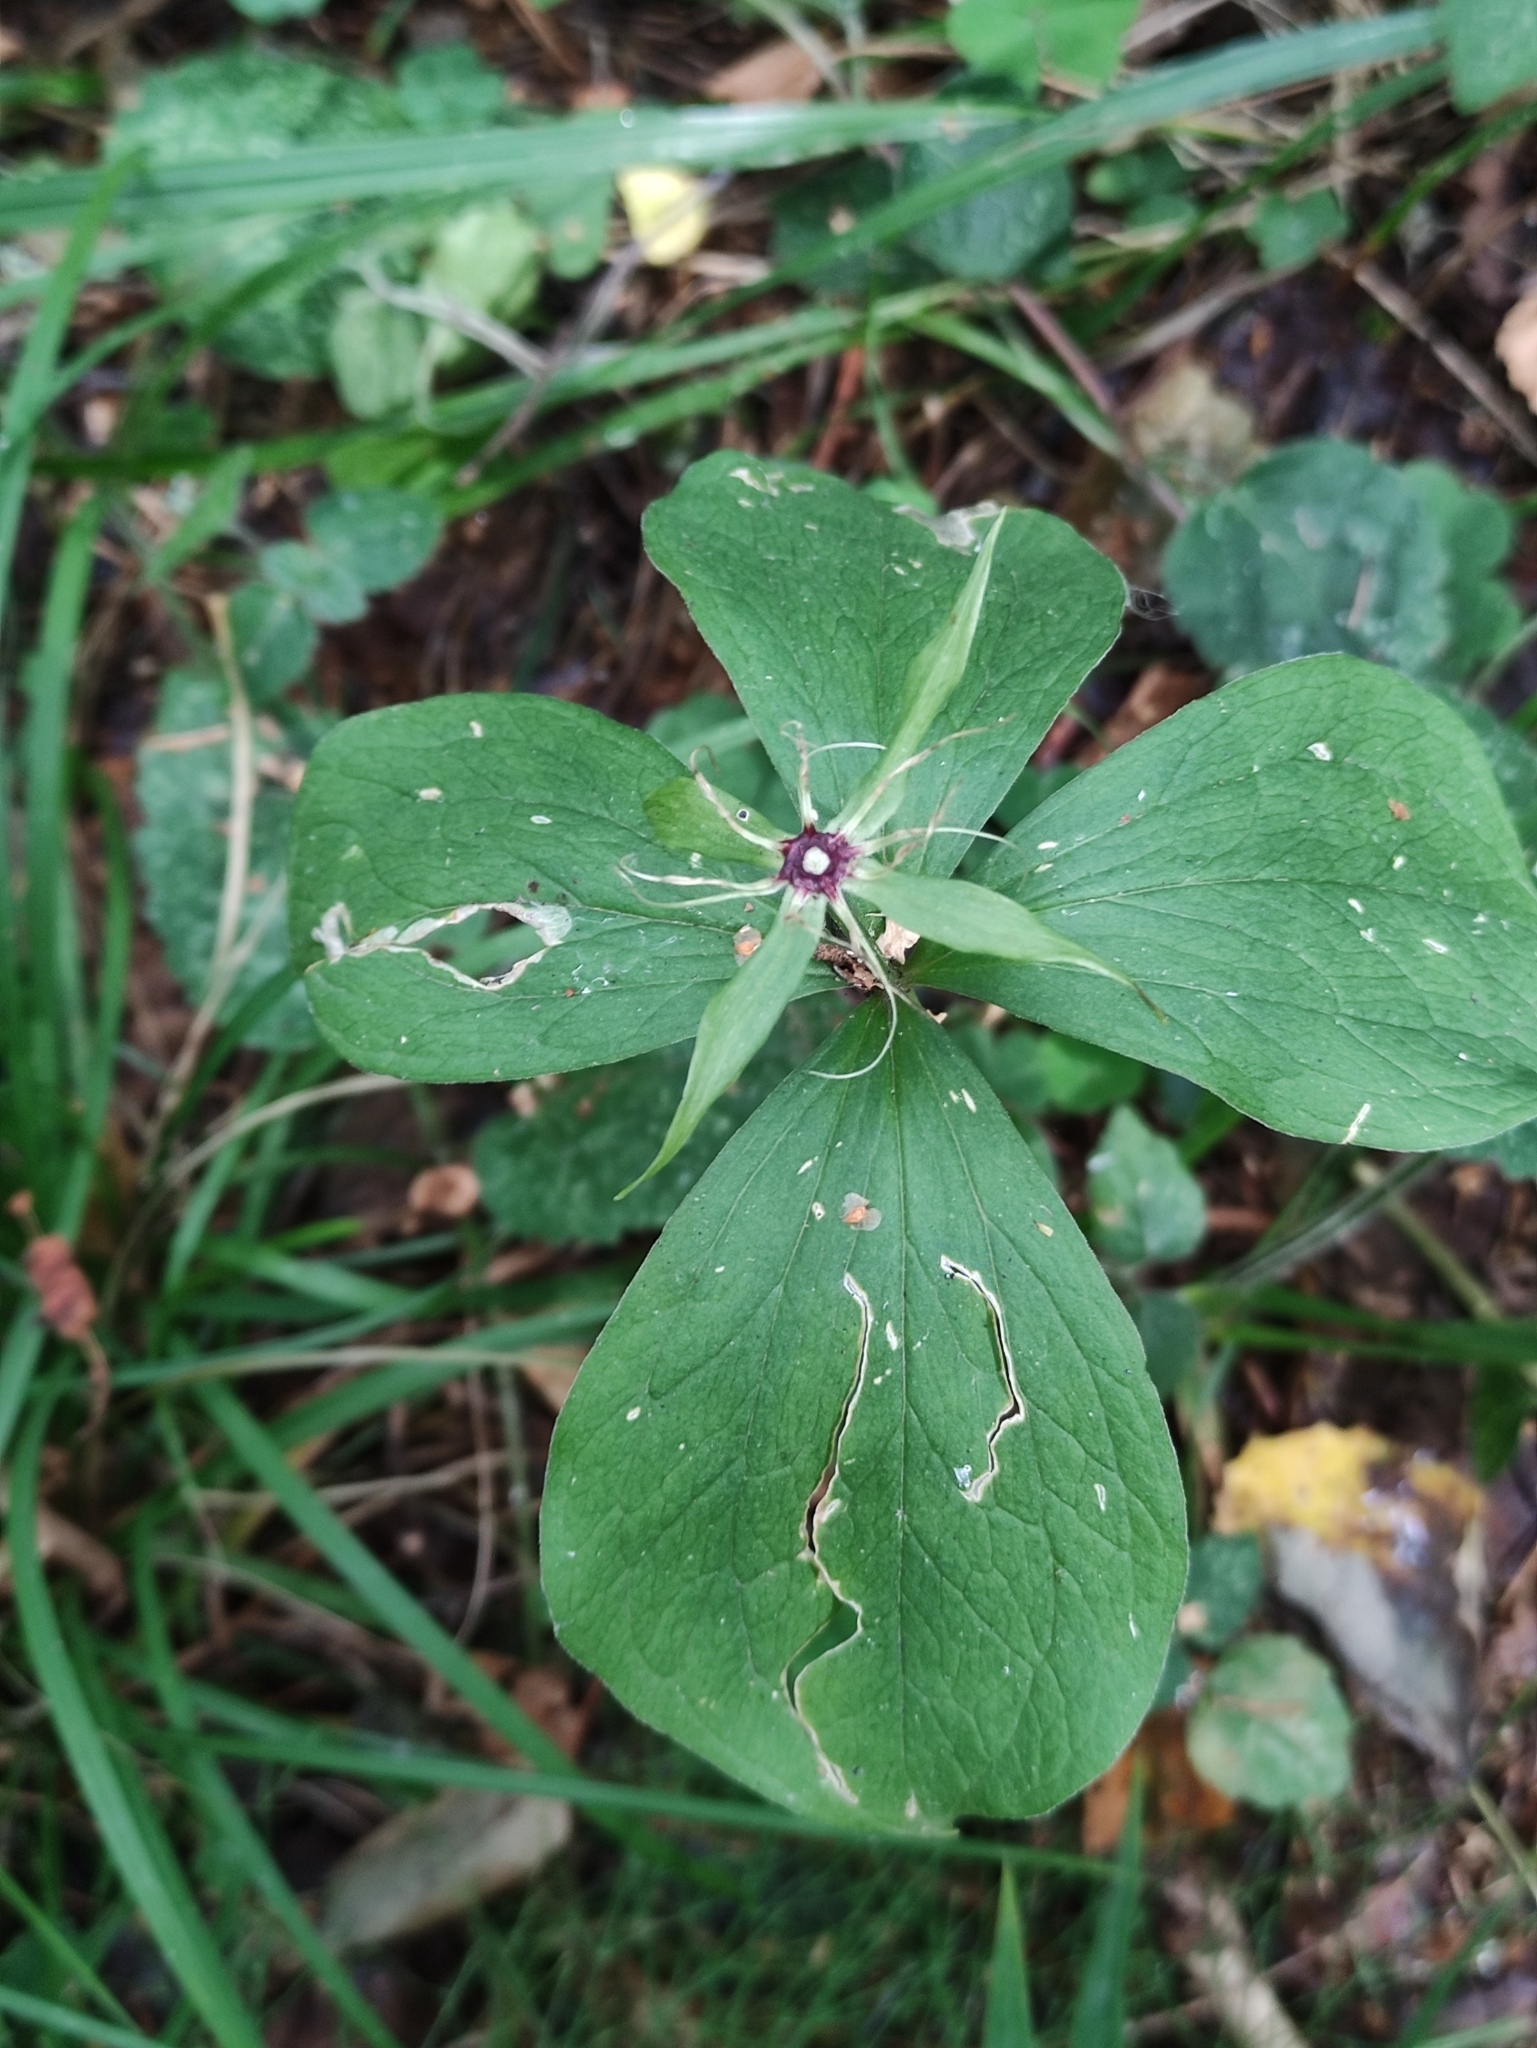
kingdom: Plantae
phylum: Tracheophyta
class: Liliopsida
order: Liliales
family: Melanthiaceae
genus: Paris
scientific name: Paris quadrifolia
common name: Herb-paris
